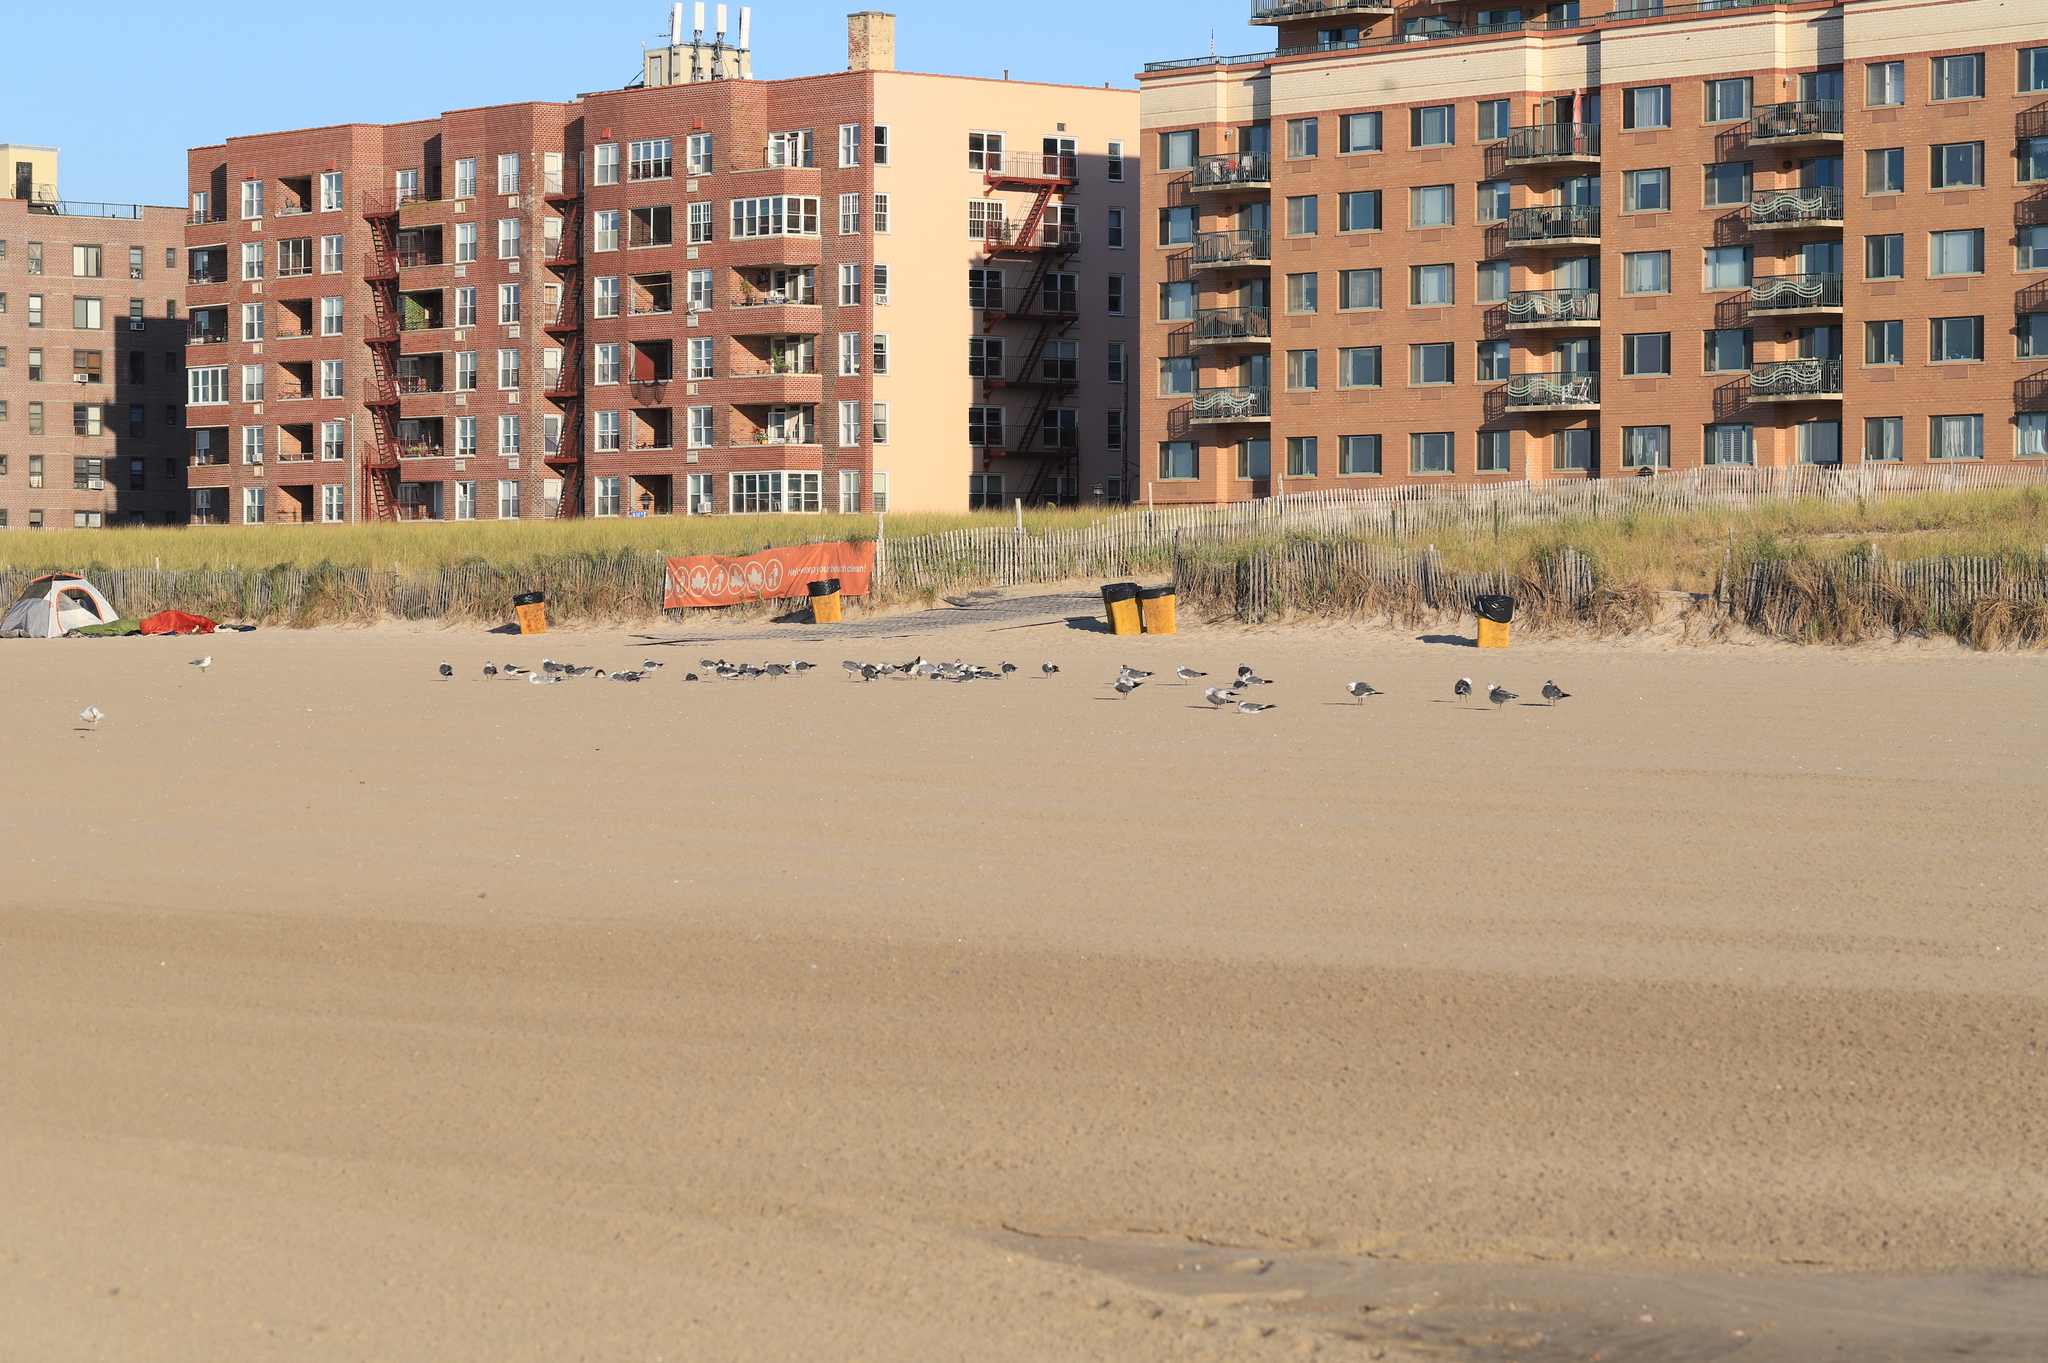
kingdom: Animalia
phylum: Chordata
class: Aves
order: Charadriiformes
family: Laridae
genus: Leucophaeus
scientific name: Leucophaeus atricilla
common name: Laughing gull
